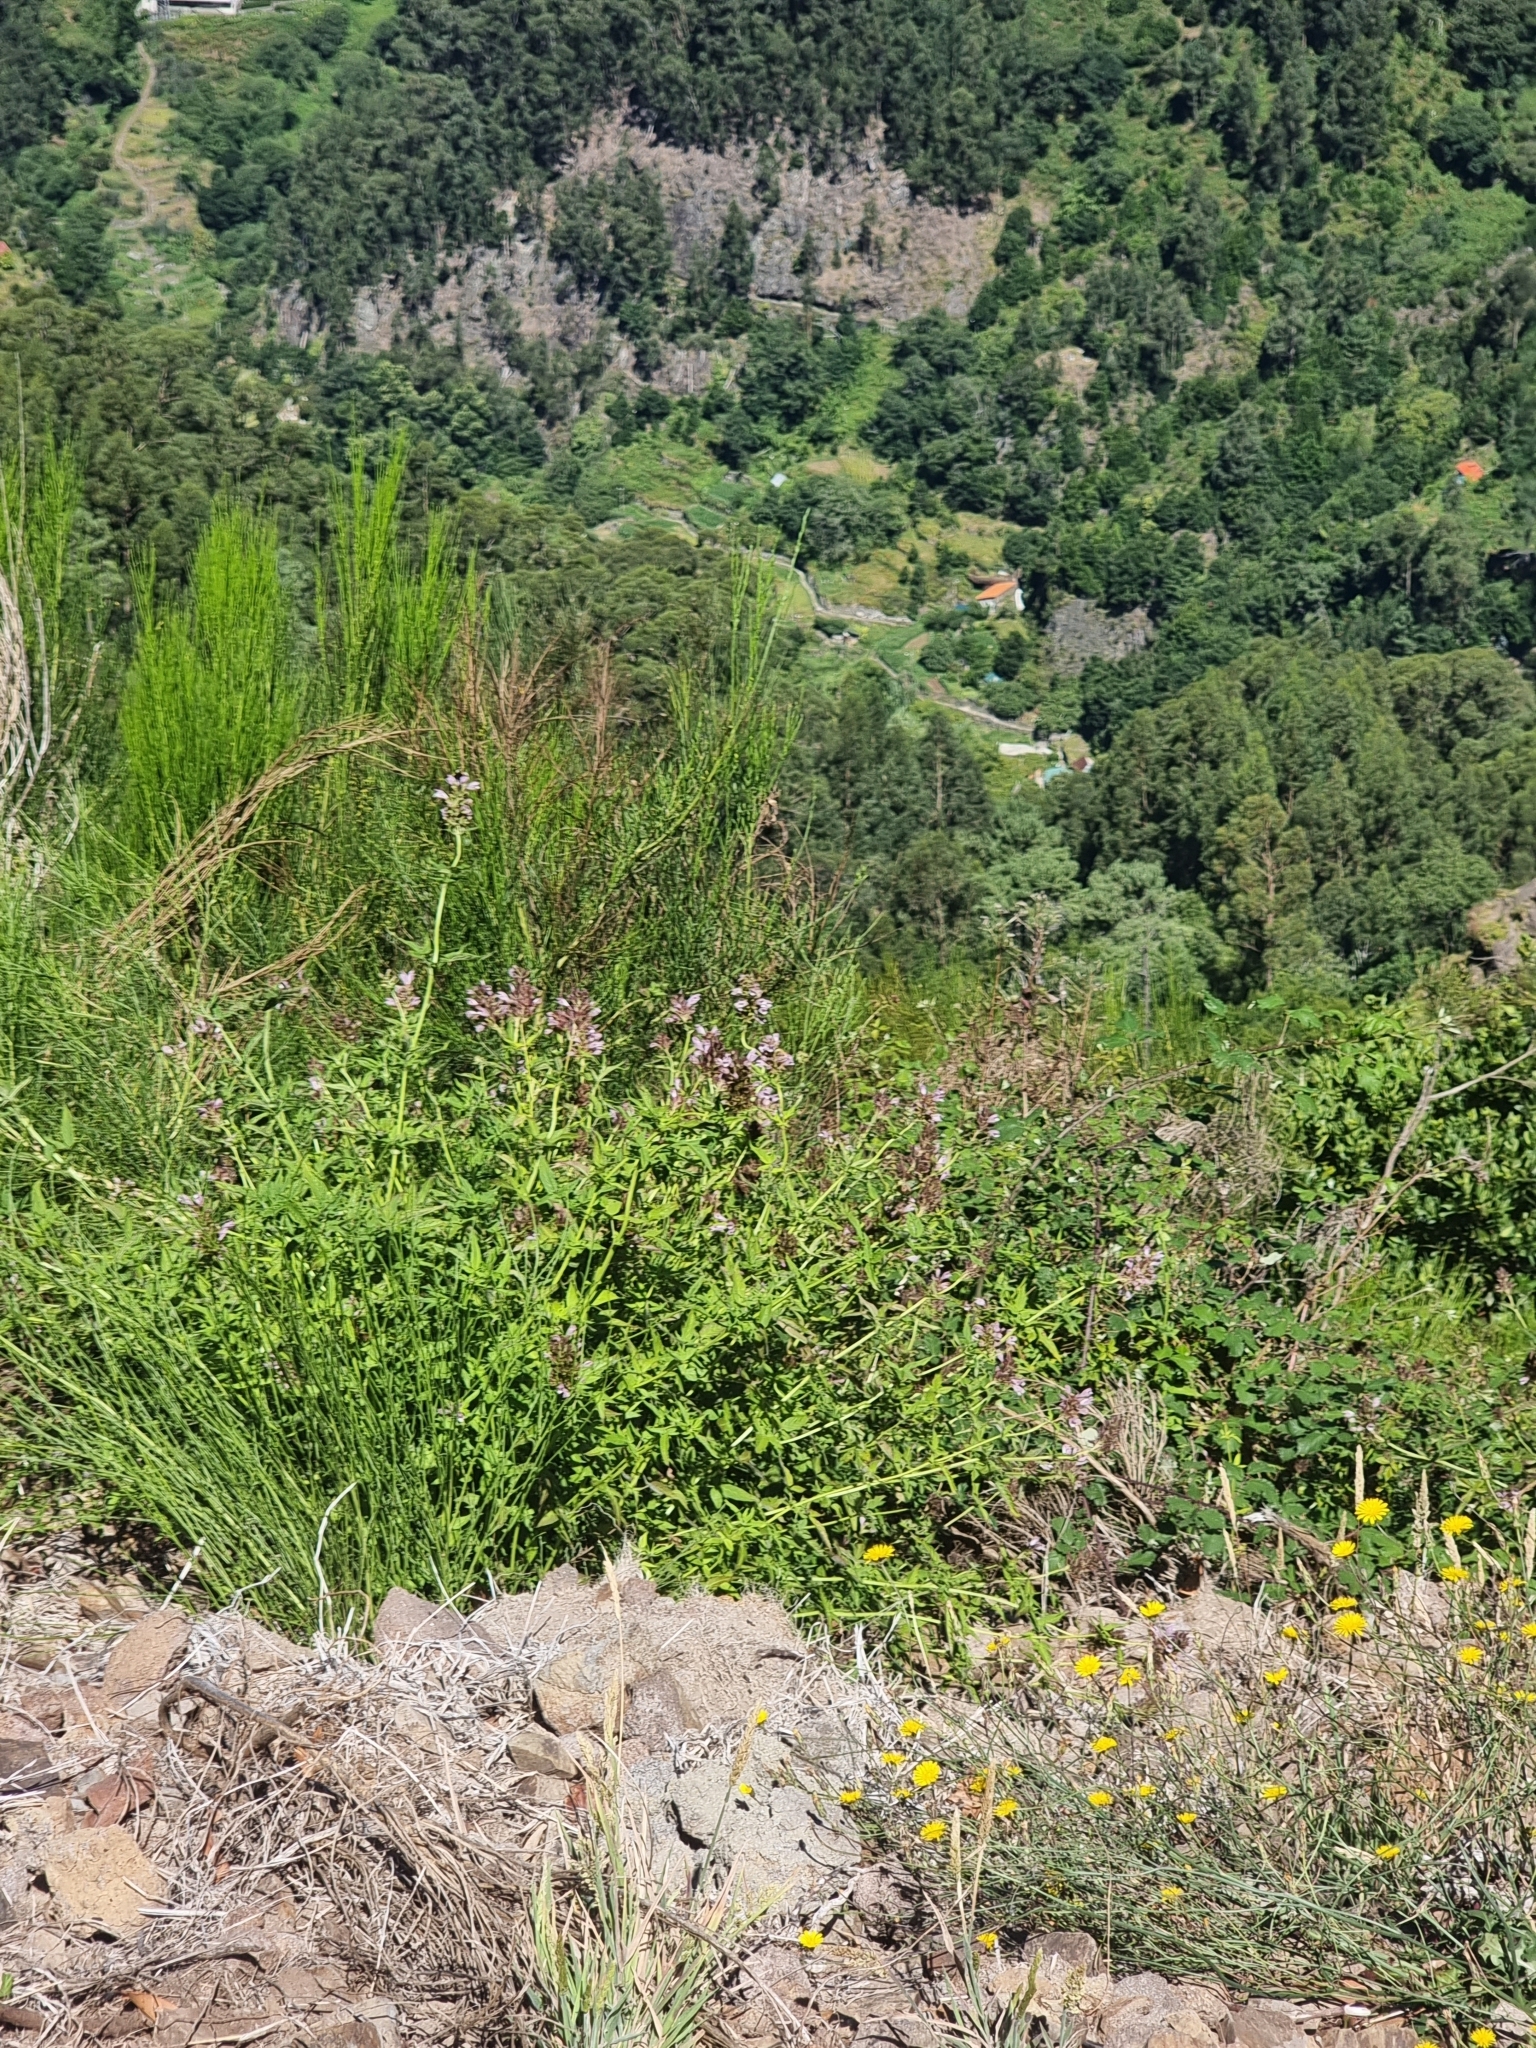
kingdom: Plantae
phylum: Tracheophyta
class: Magnoliopsida
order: Lamiales
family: Lamiaceae
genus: Cedronella
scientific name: Cedronella canariensis
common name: Canary islands balm
